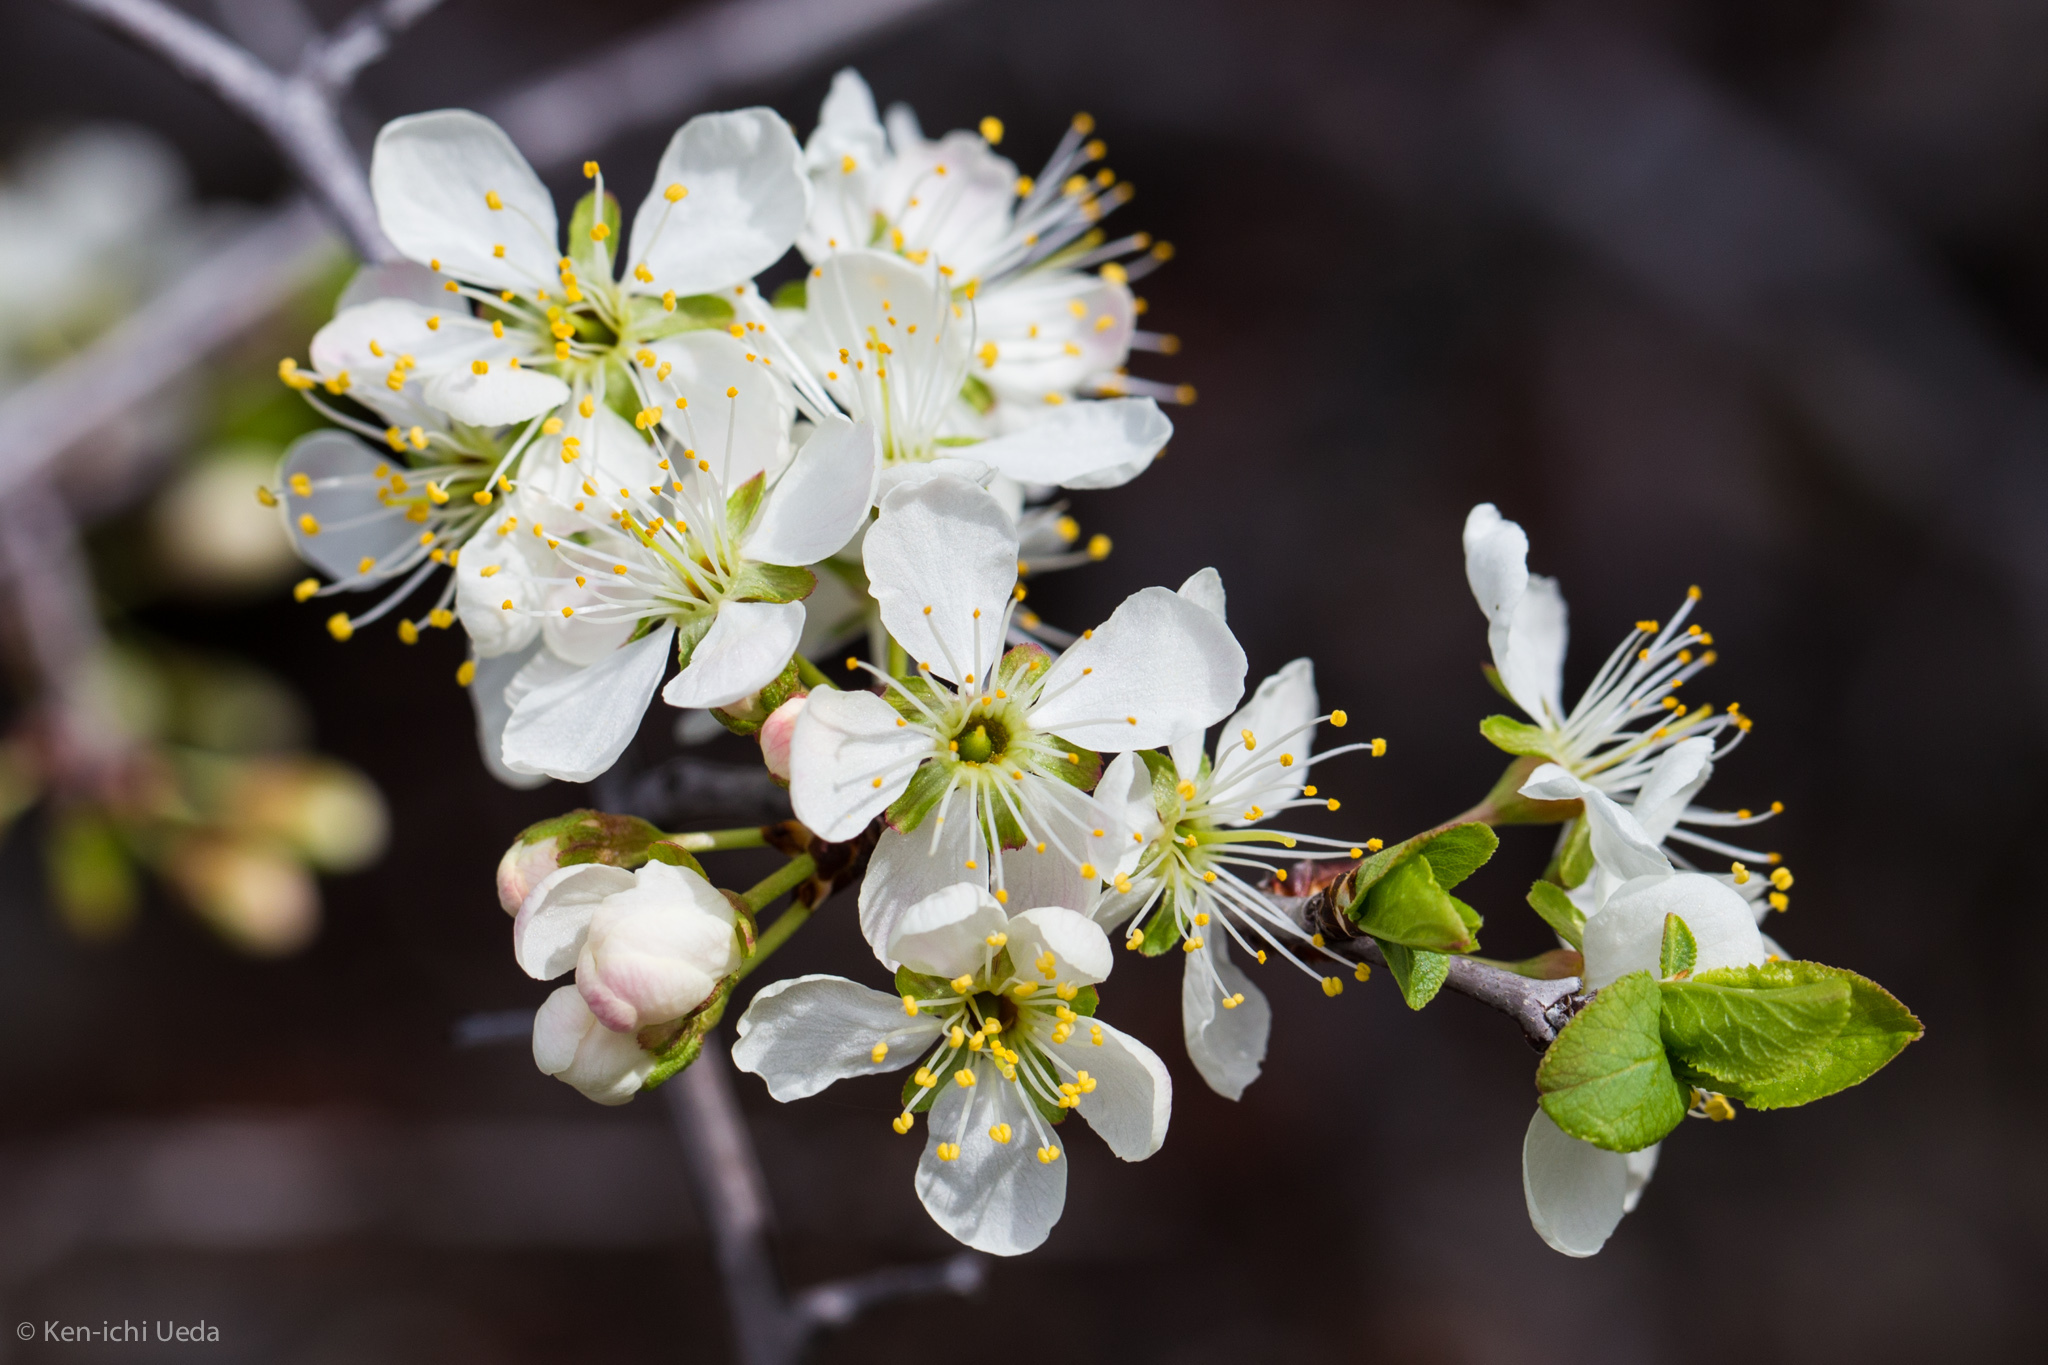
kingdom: Plantae
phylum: Tracheophyta
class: Magnoliopsida
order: Rosales
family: Rosaceae
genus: Prunus
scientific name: Prunus subcordata
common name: Klamath plum
